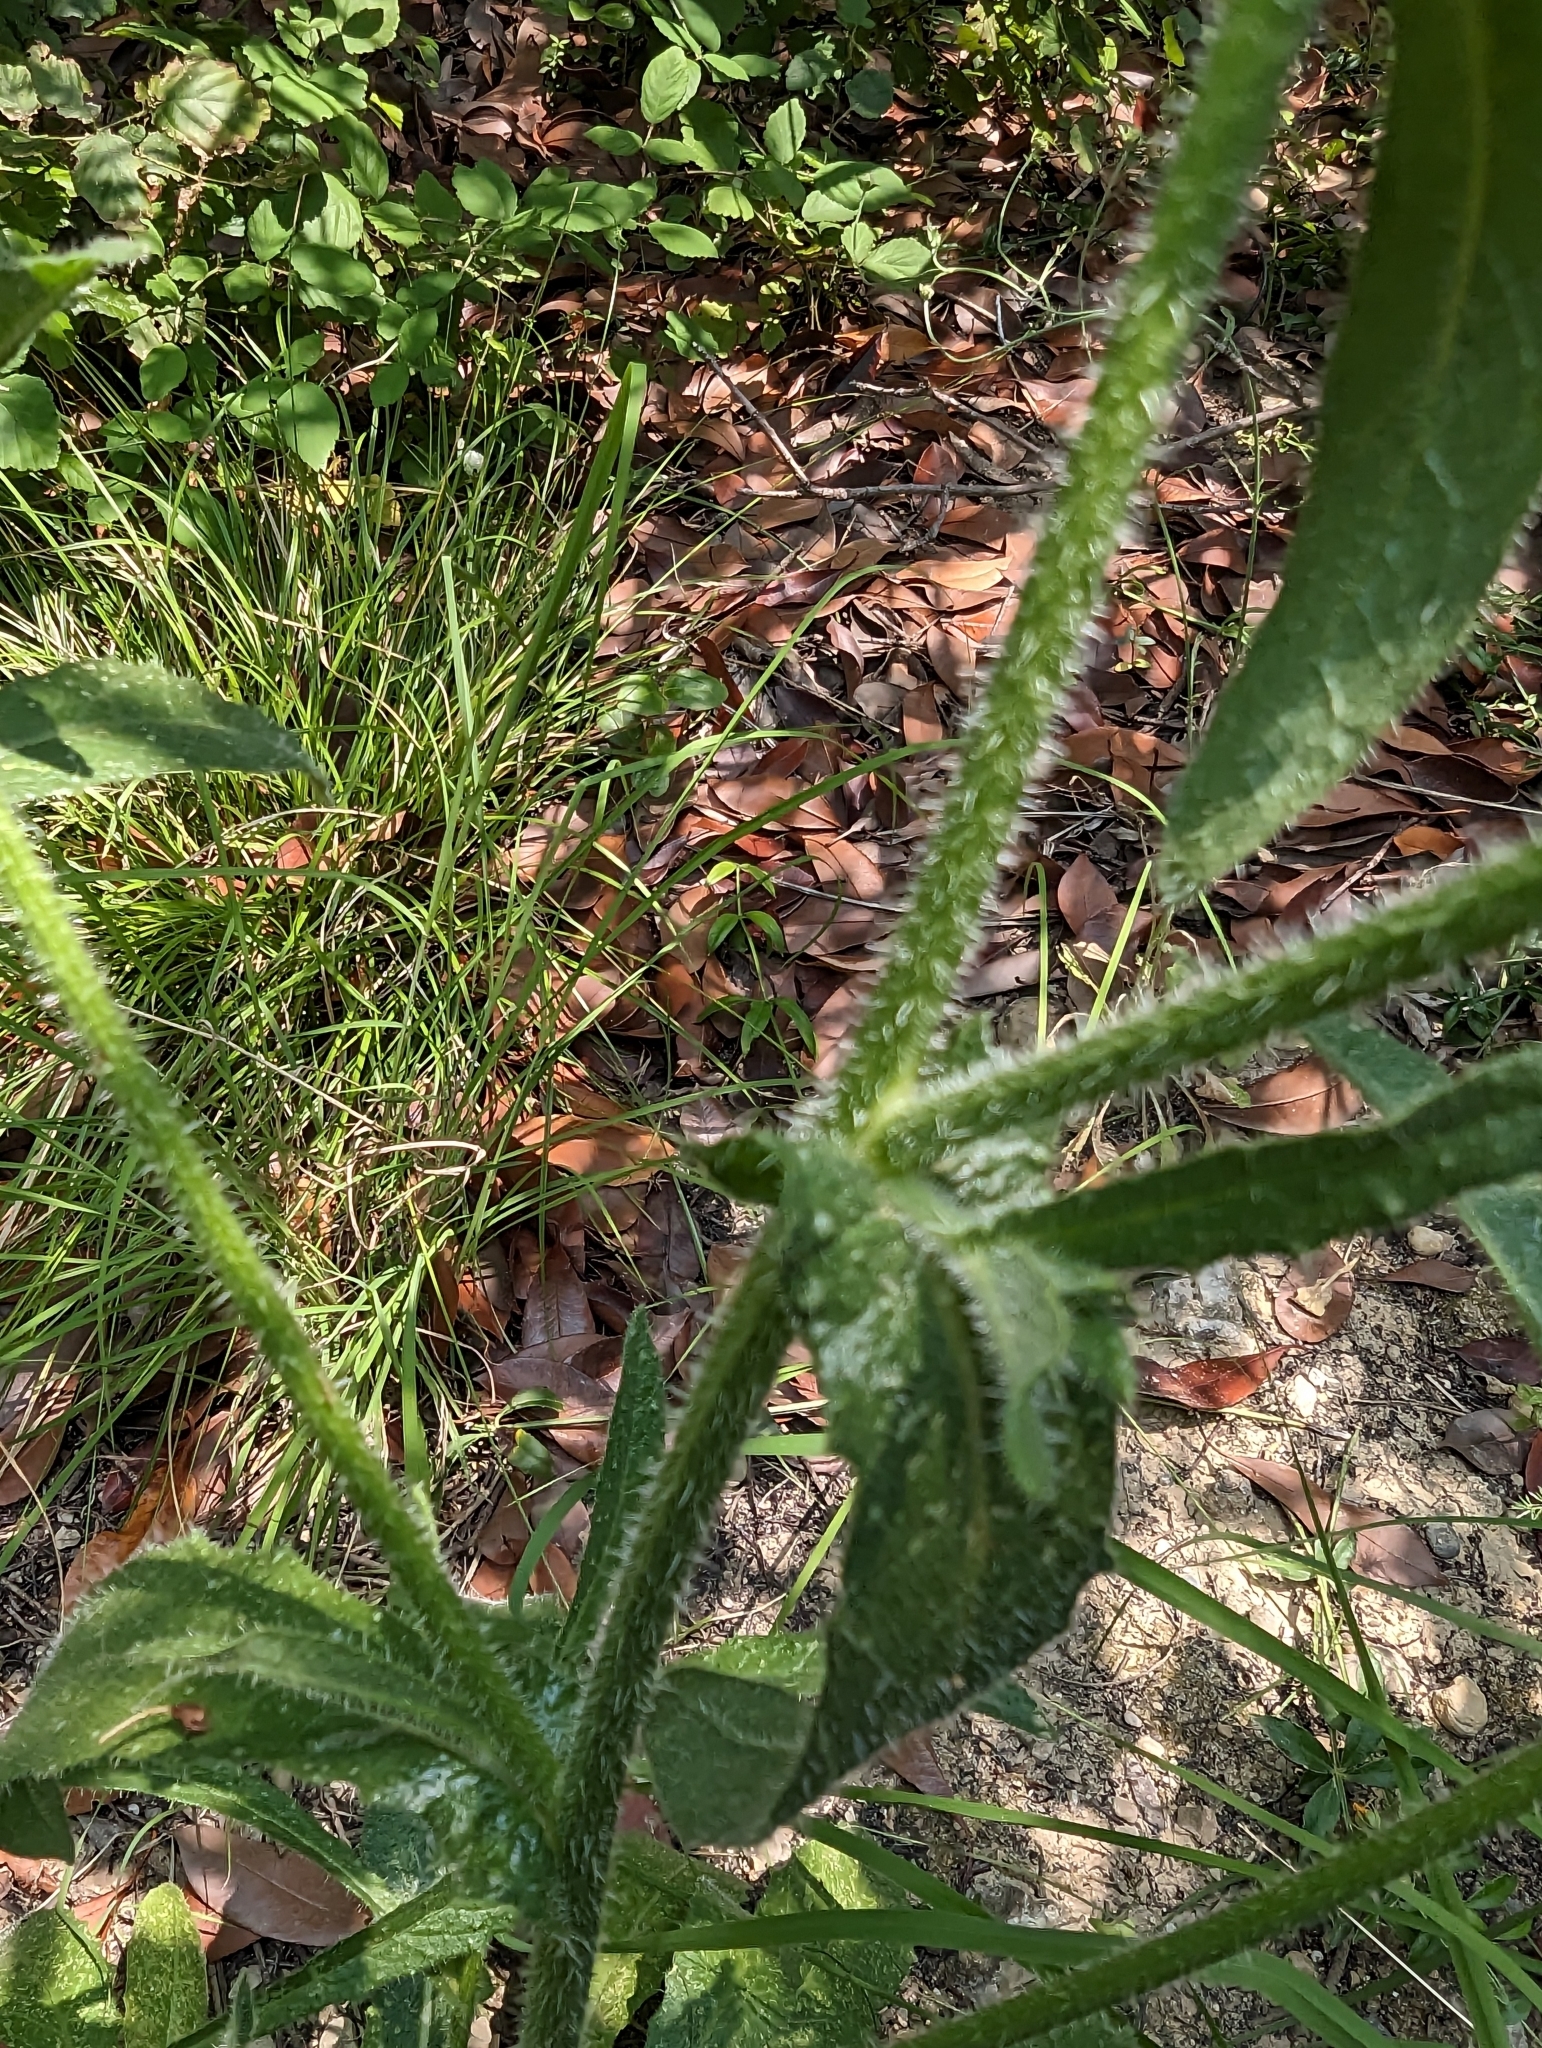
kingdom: Plantae
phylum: Tracheophyta
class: Magnoliopsida
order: Asterales
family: Asteraceae
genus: Helminthotheca
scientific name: Helminthotheca echioides
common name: Ox-tongue
